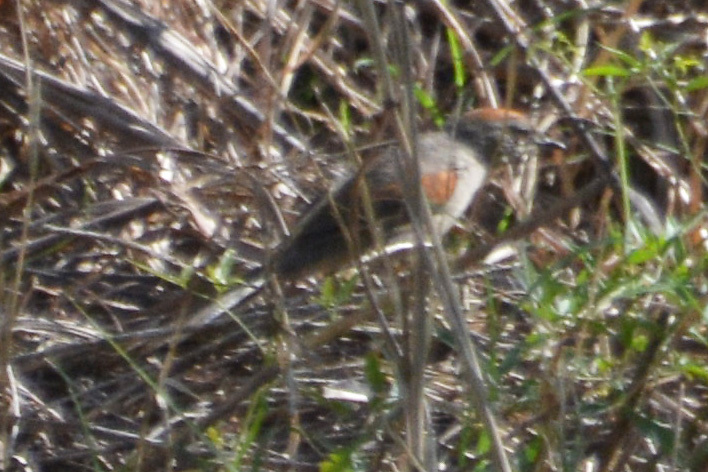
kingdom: Animalia
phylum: Chordata
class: Aves
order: Passeriformes
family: Furnariidae
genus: Synallaxis
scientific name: Synallaxis albescens
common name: Pale-breasted spinetail
